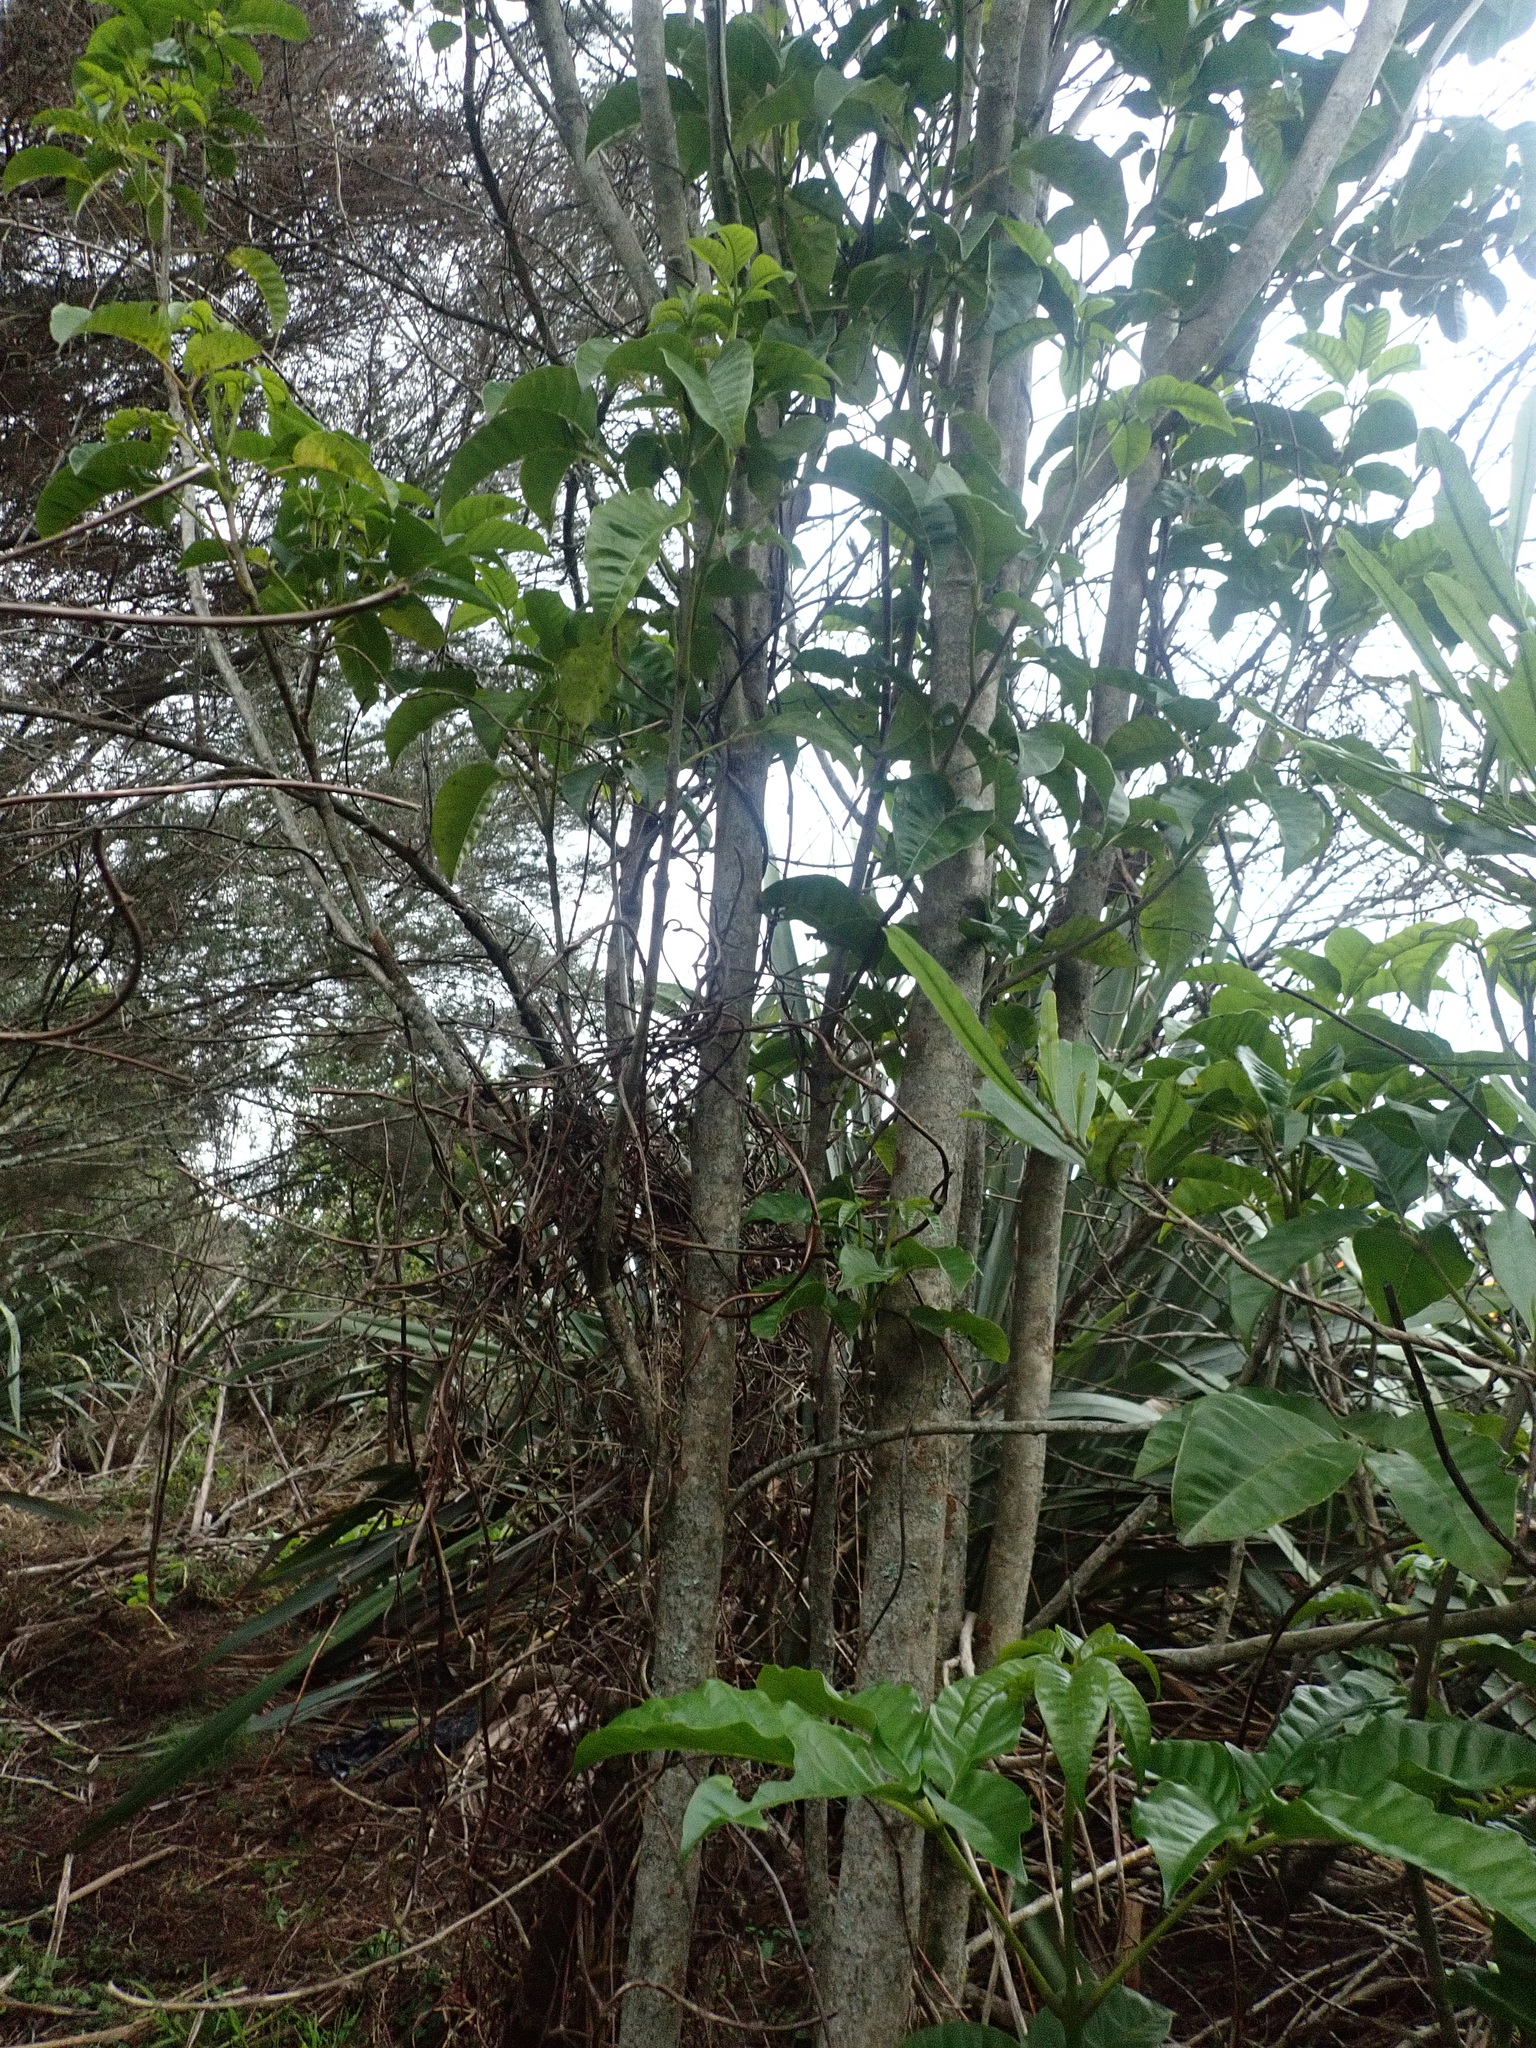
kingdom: Plantae
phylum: Tracheophyta
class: Magnoliopsida
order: Lamiales
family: Lamiaceae
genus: Vitex
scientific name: Vitex lucens
